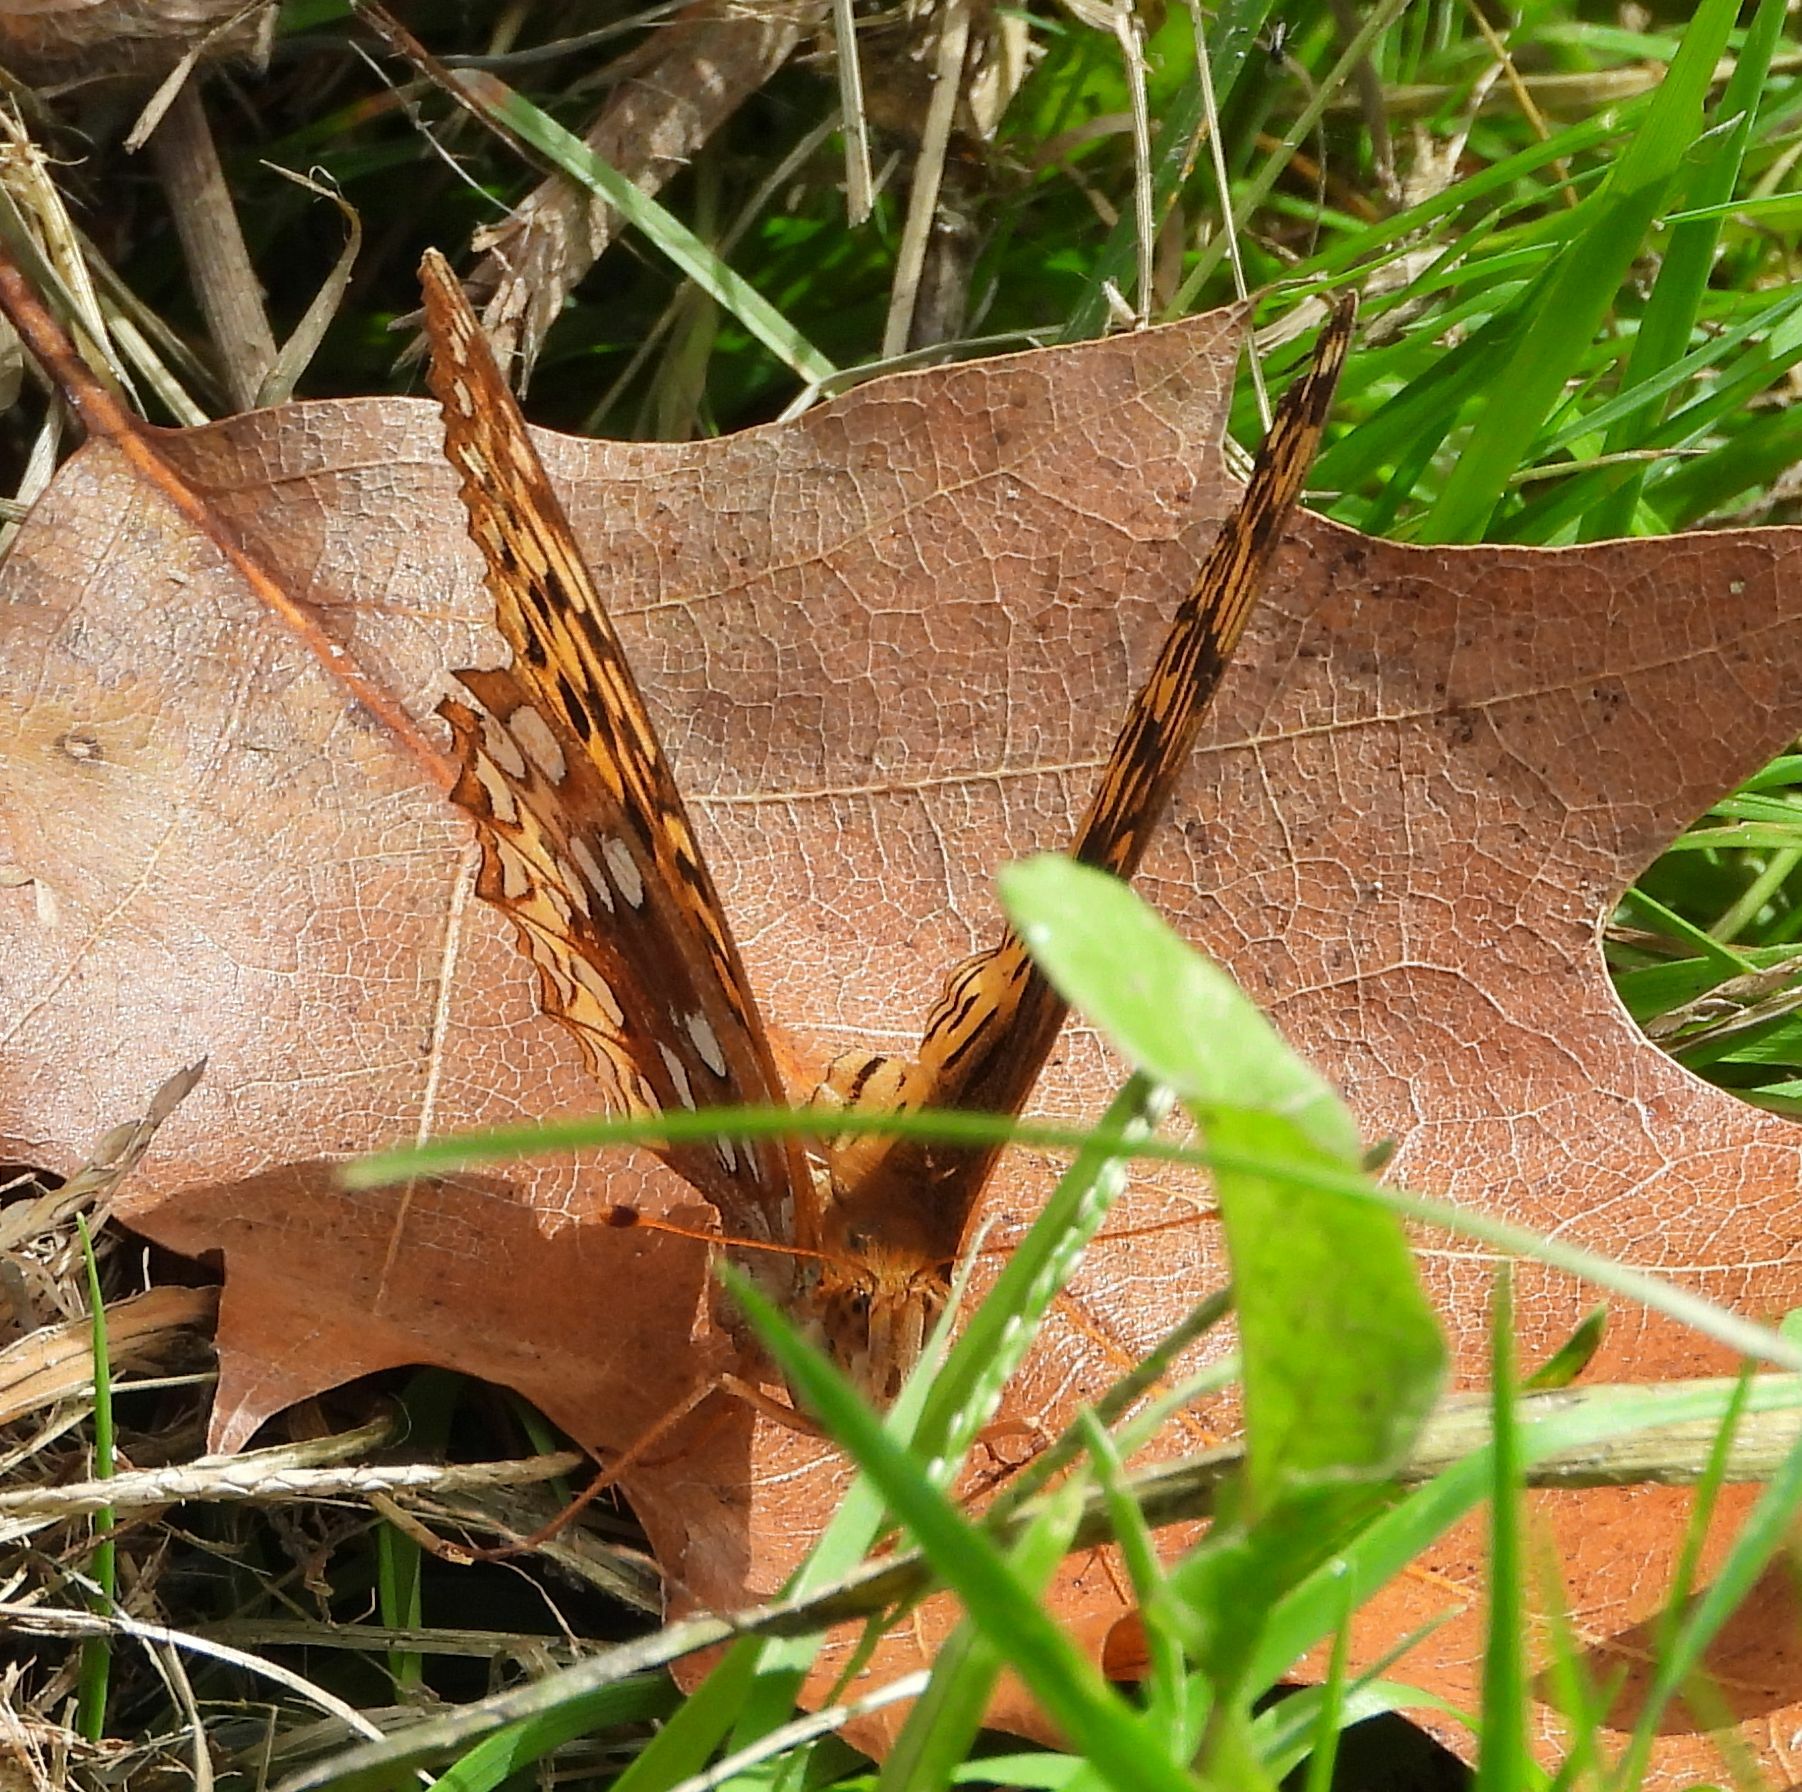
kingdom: Animalia
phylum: Arthropoda
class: Insecta
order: Lepidoptera
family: Nymphalidae
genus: Speyeria
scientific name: Speyeria cybele
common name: Great spangled fritillary
